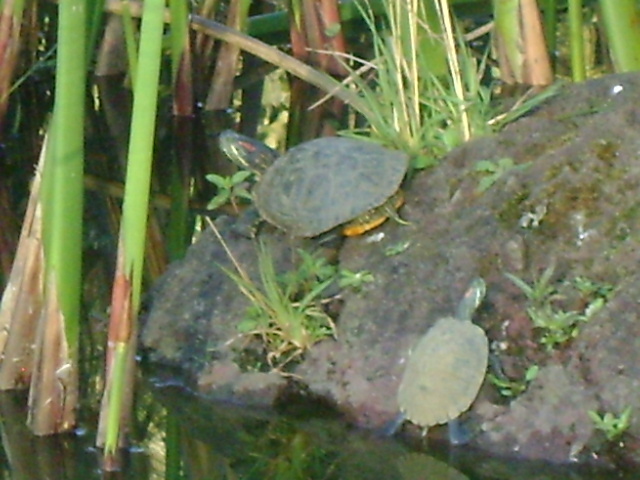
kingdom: Animalia
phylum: Chordata
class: Testudines
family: Emydidae
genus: Trachemys
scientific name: Trachemys scripta
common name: Slider
